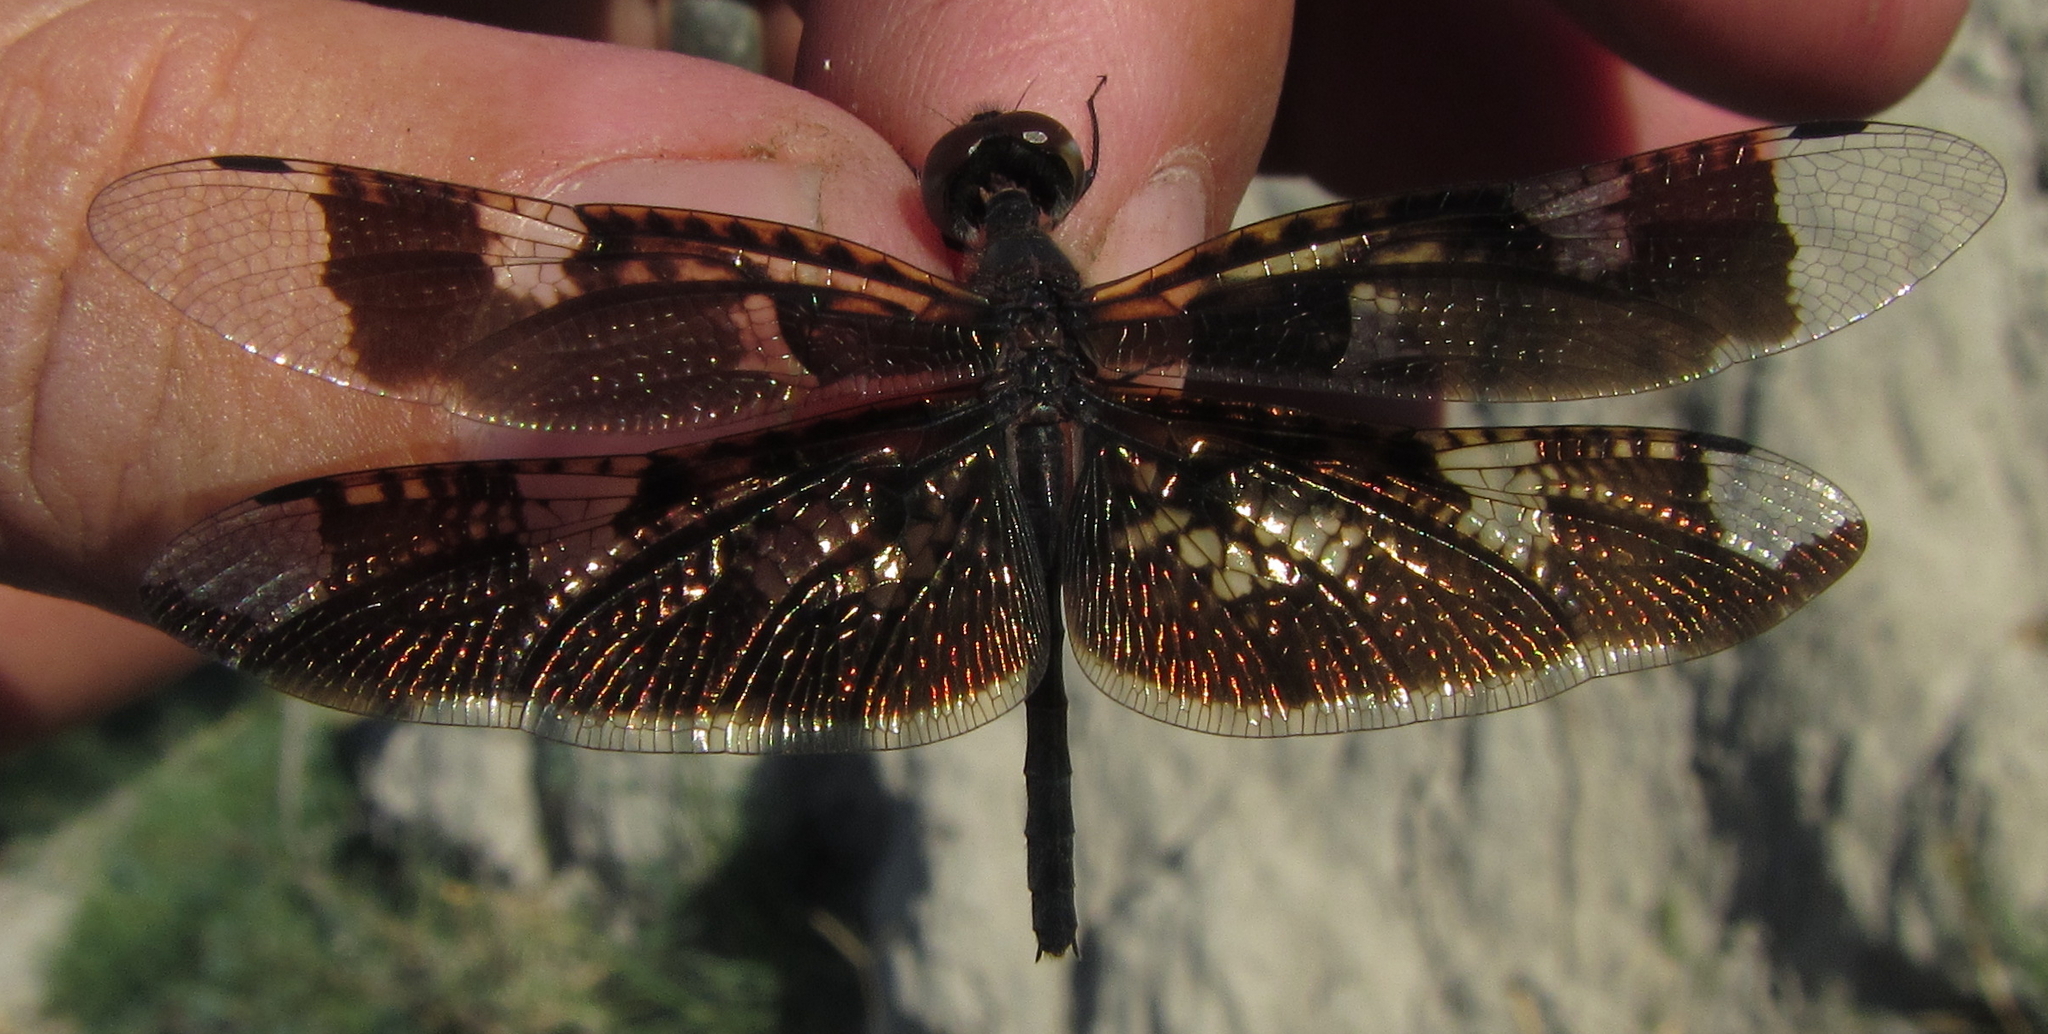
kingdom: Animalia
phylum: Arthropoda
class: Insecta
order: Odonata
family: Libellulidae
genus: Rhyothemis
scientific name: Rhyothemis fenestrina
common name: Skylight flutterer
